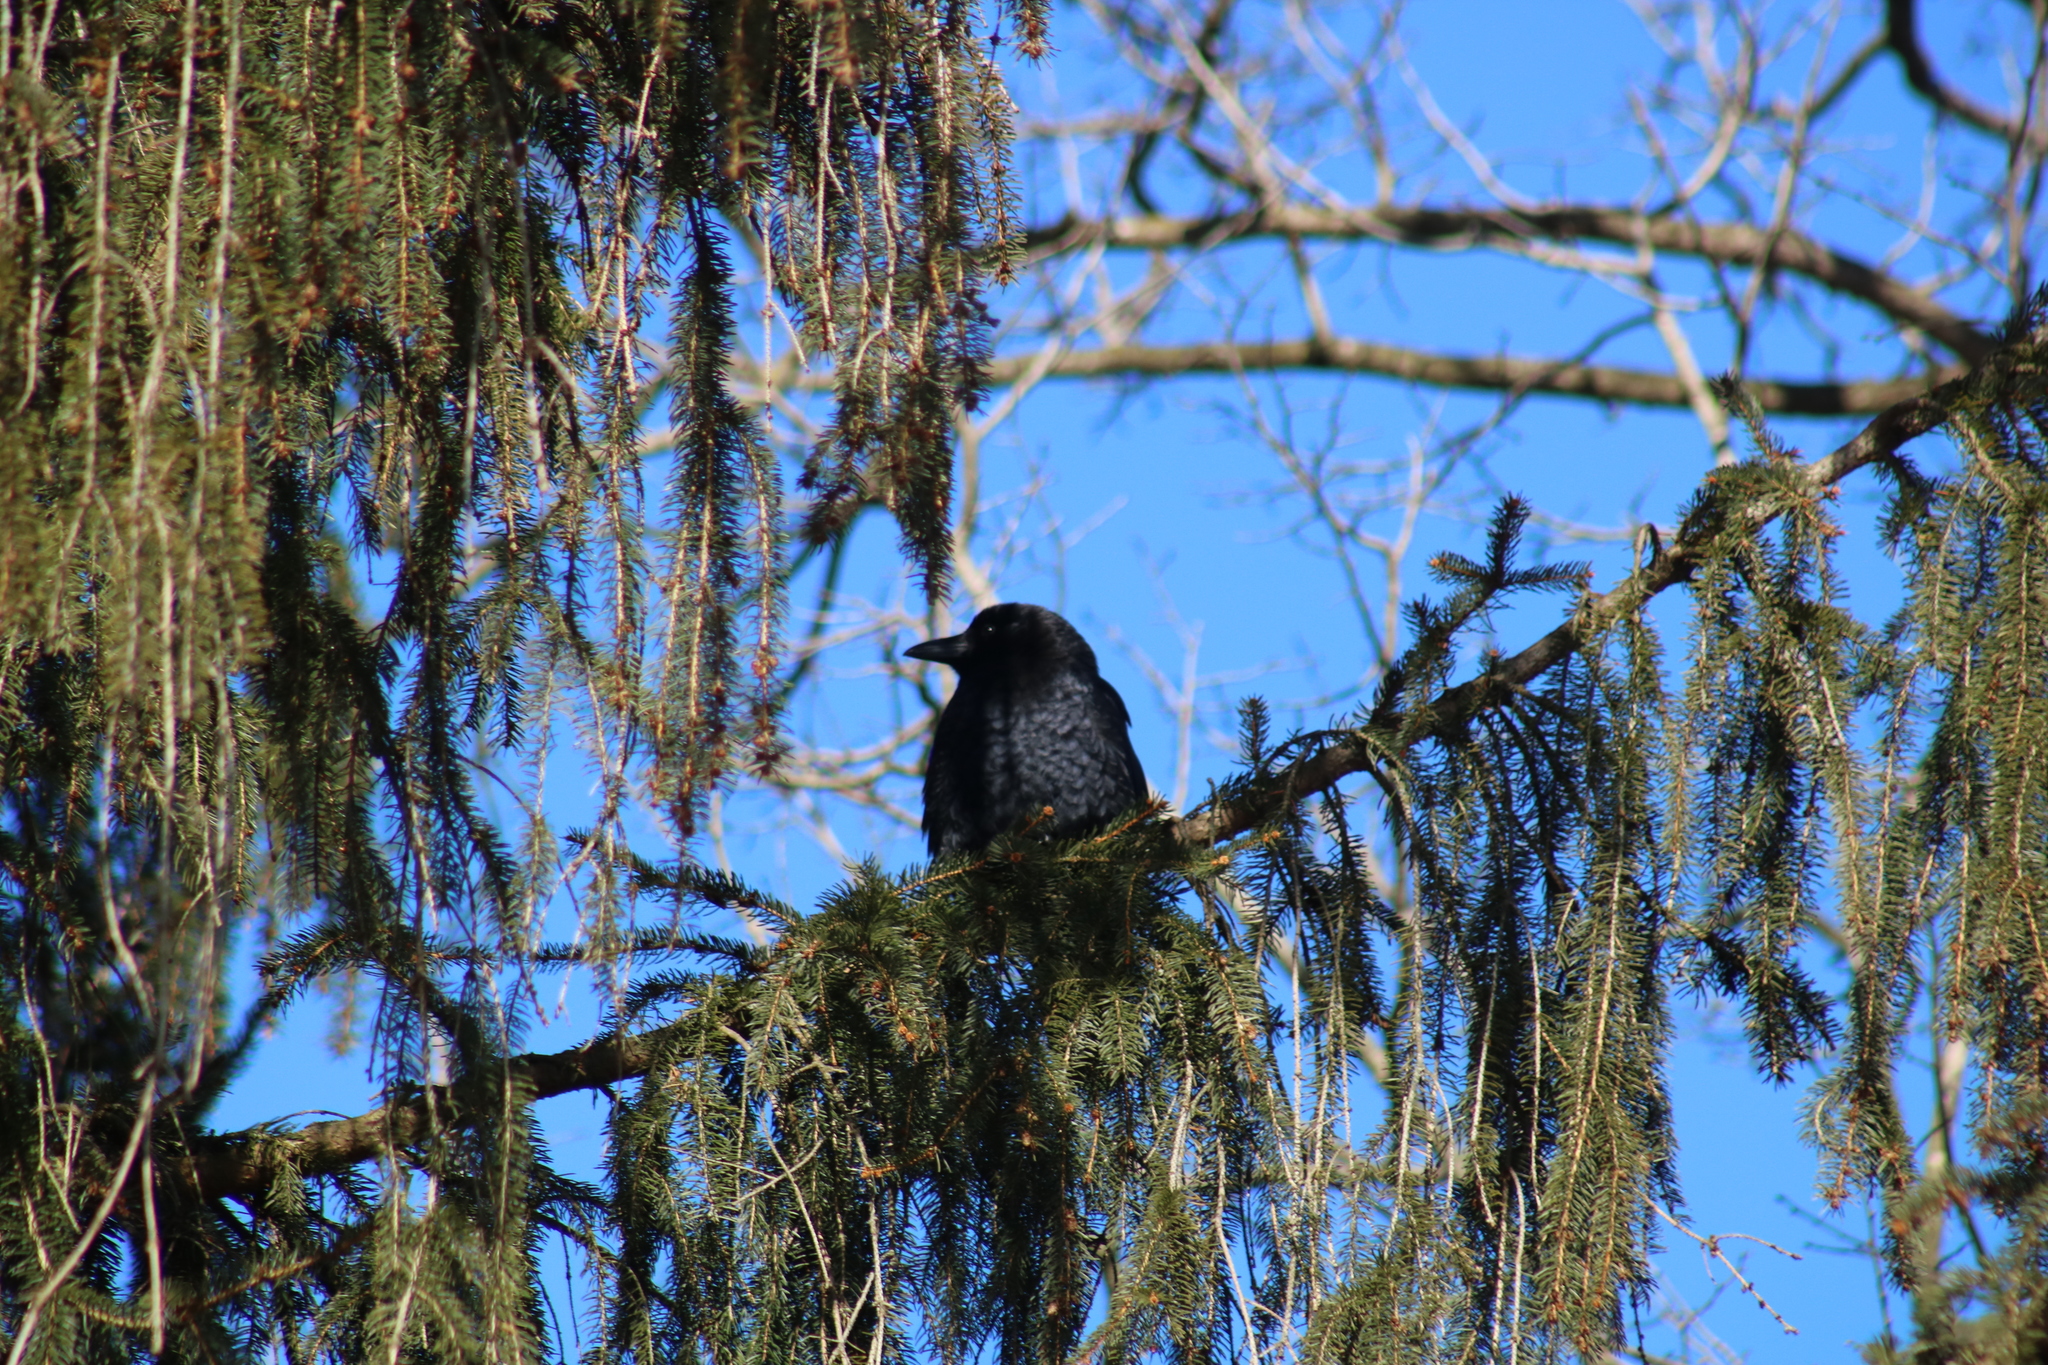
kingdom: Animalia
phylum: Chordata
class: Aves
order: Passeriformes
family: Corvidae
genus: Corvus
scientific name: Corvus brachyrhynchos
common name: American crow
